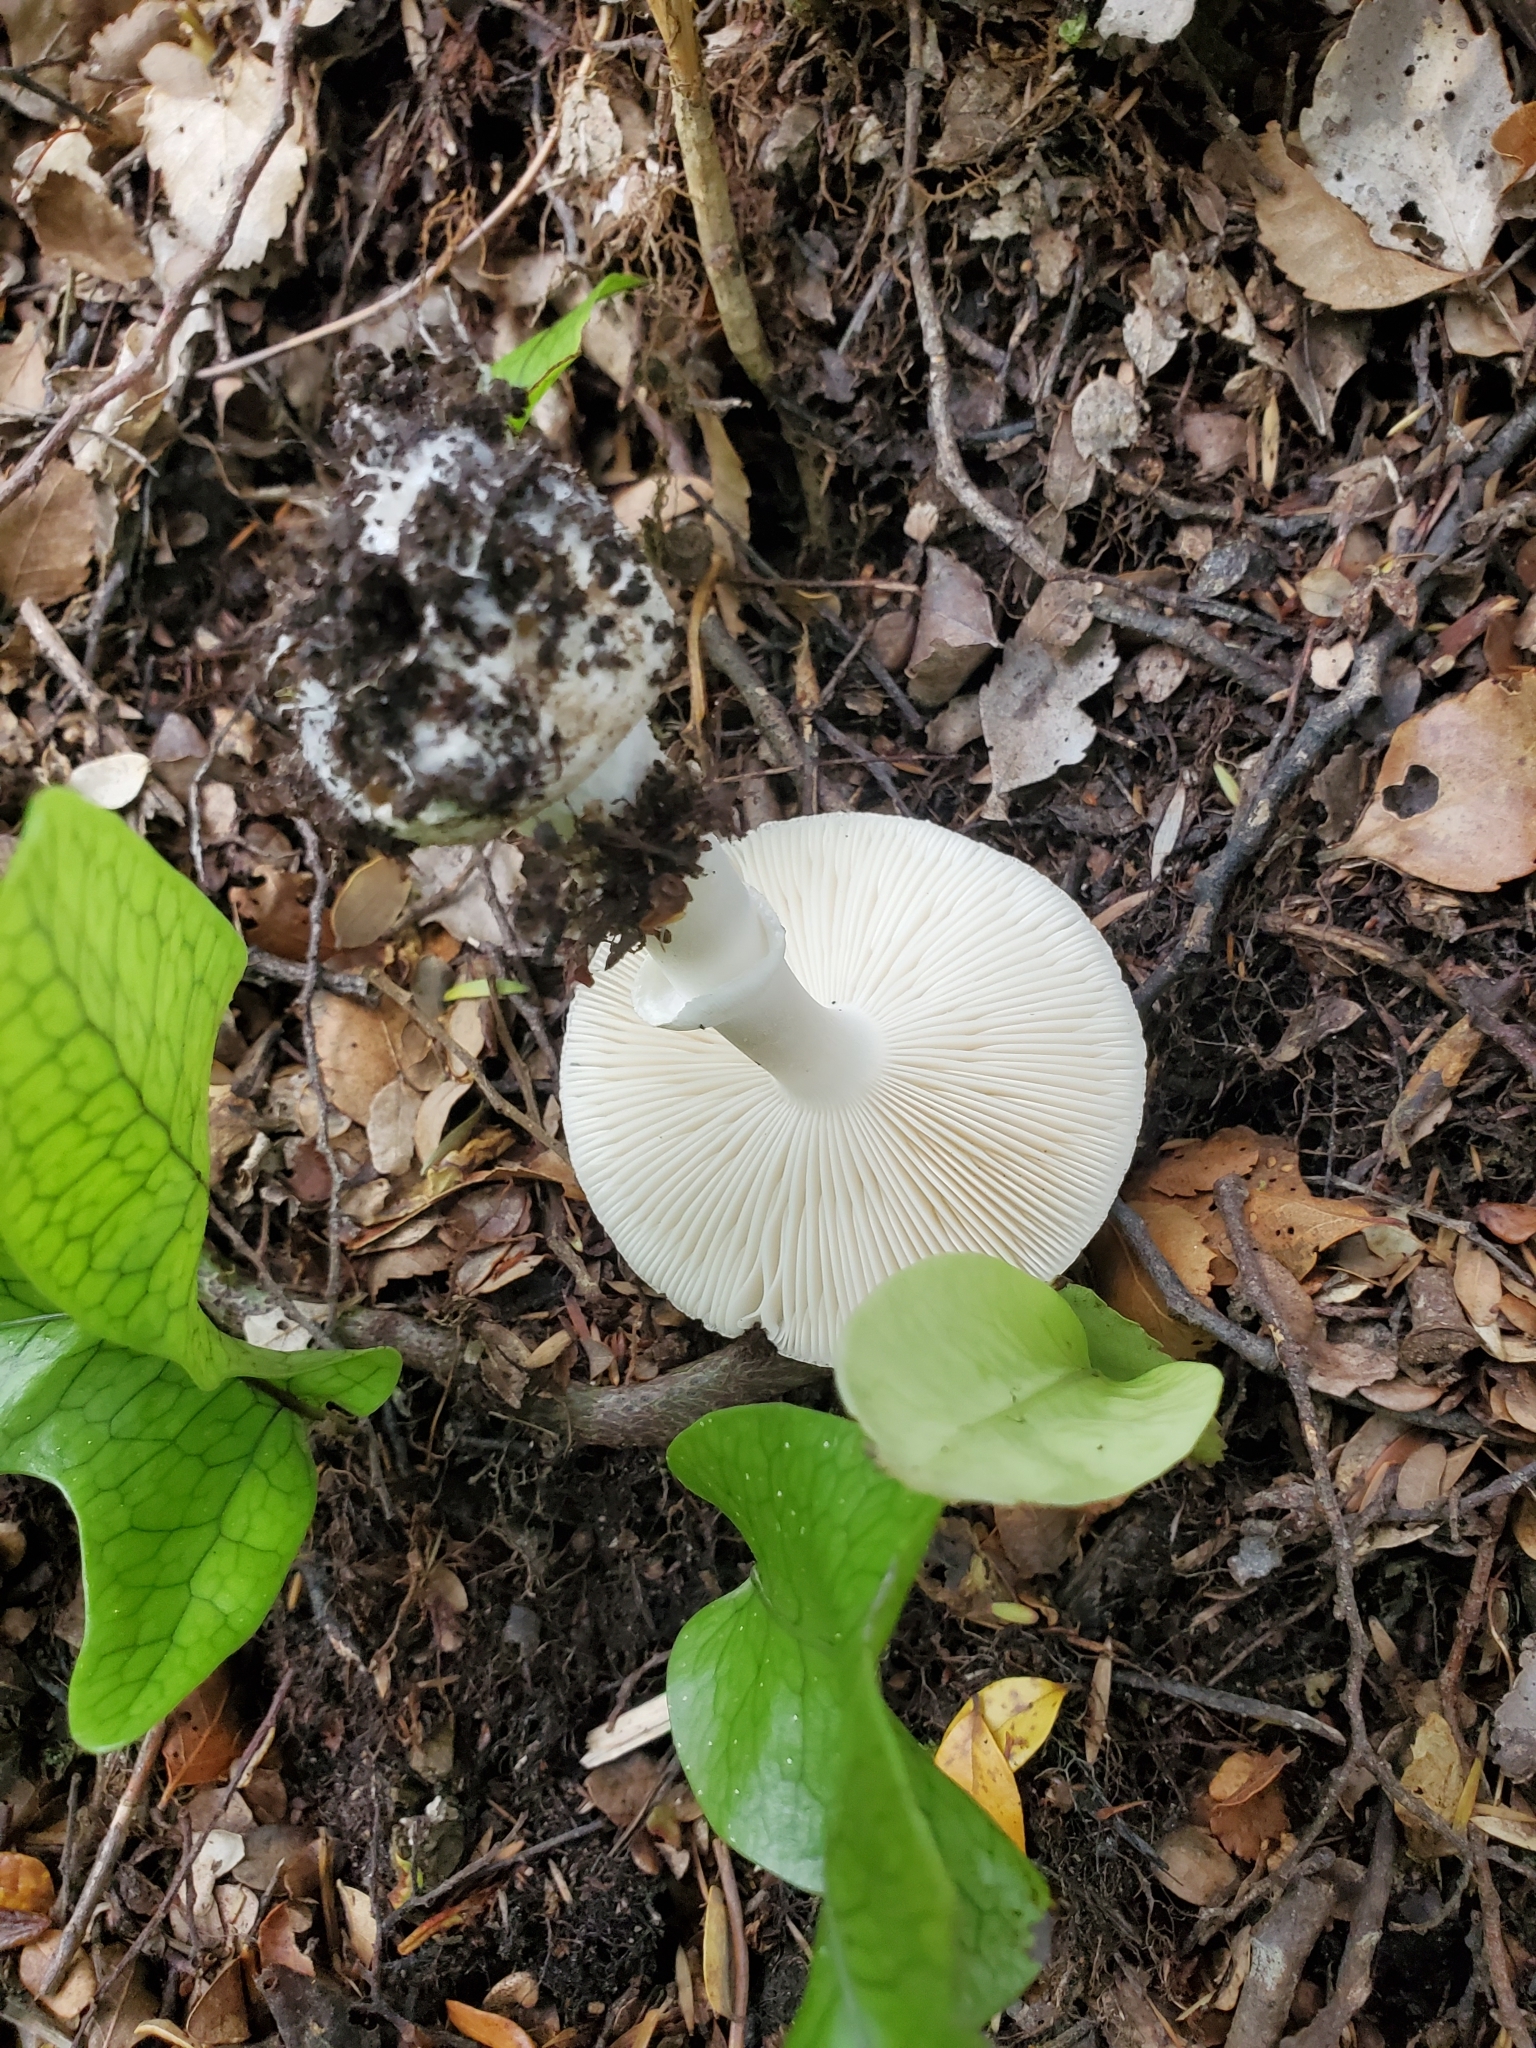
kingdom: Fungi
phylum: Basidiomycota
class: Agaricomycetes
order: Agaricales
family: Amanitaceae
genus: Amanita
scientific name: Amanita australis
